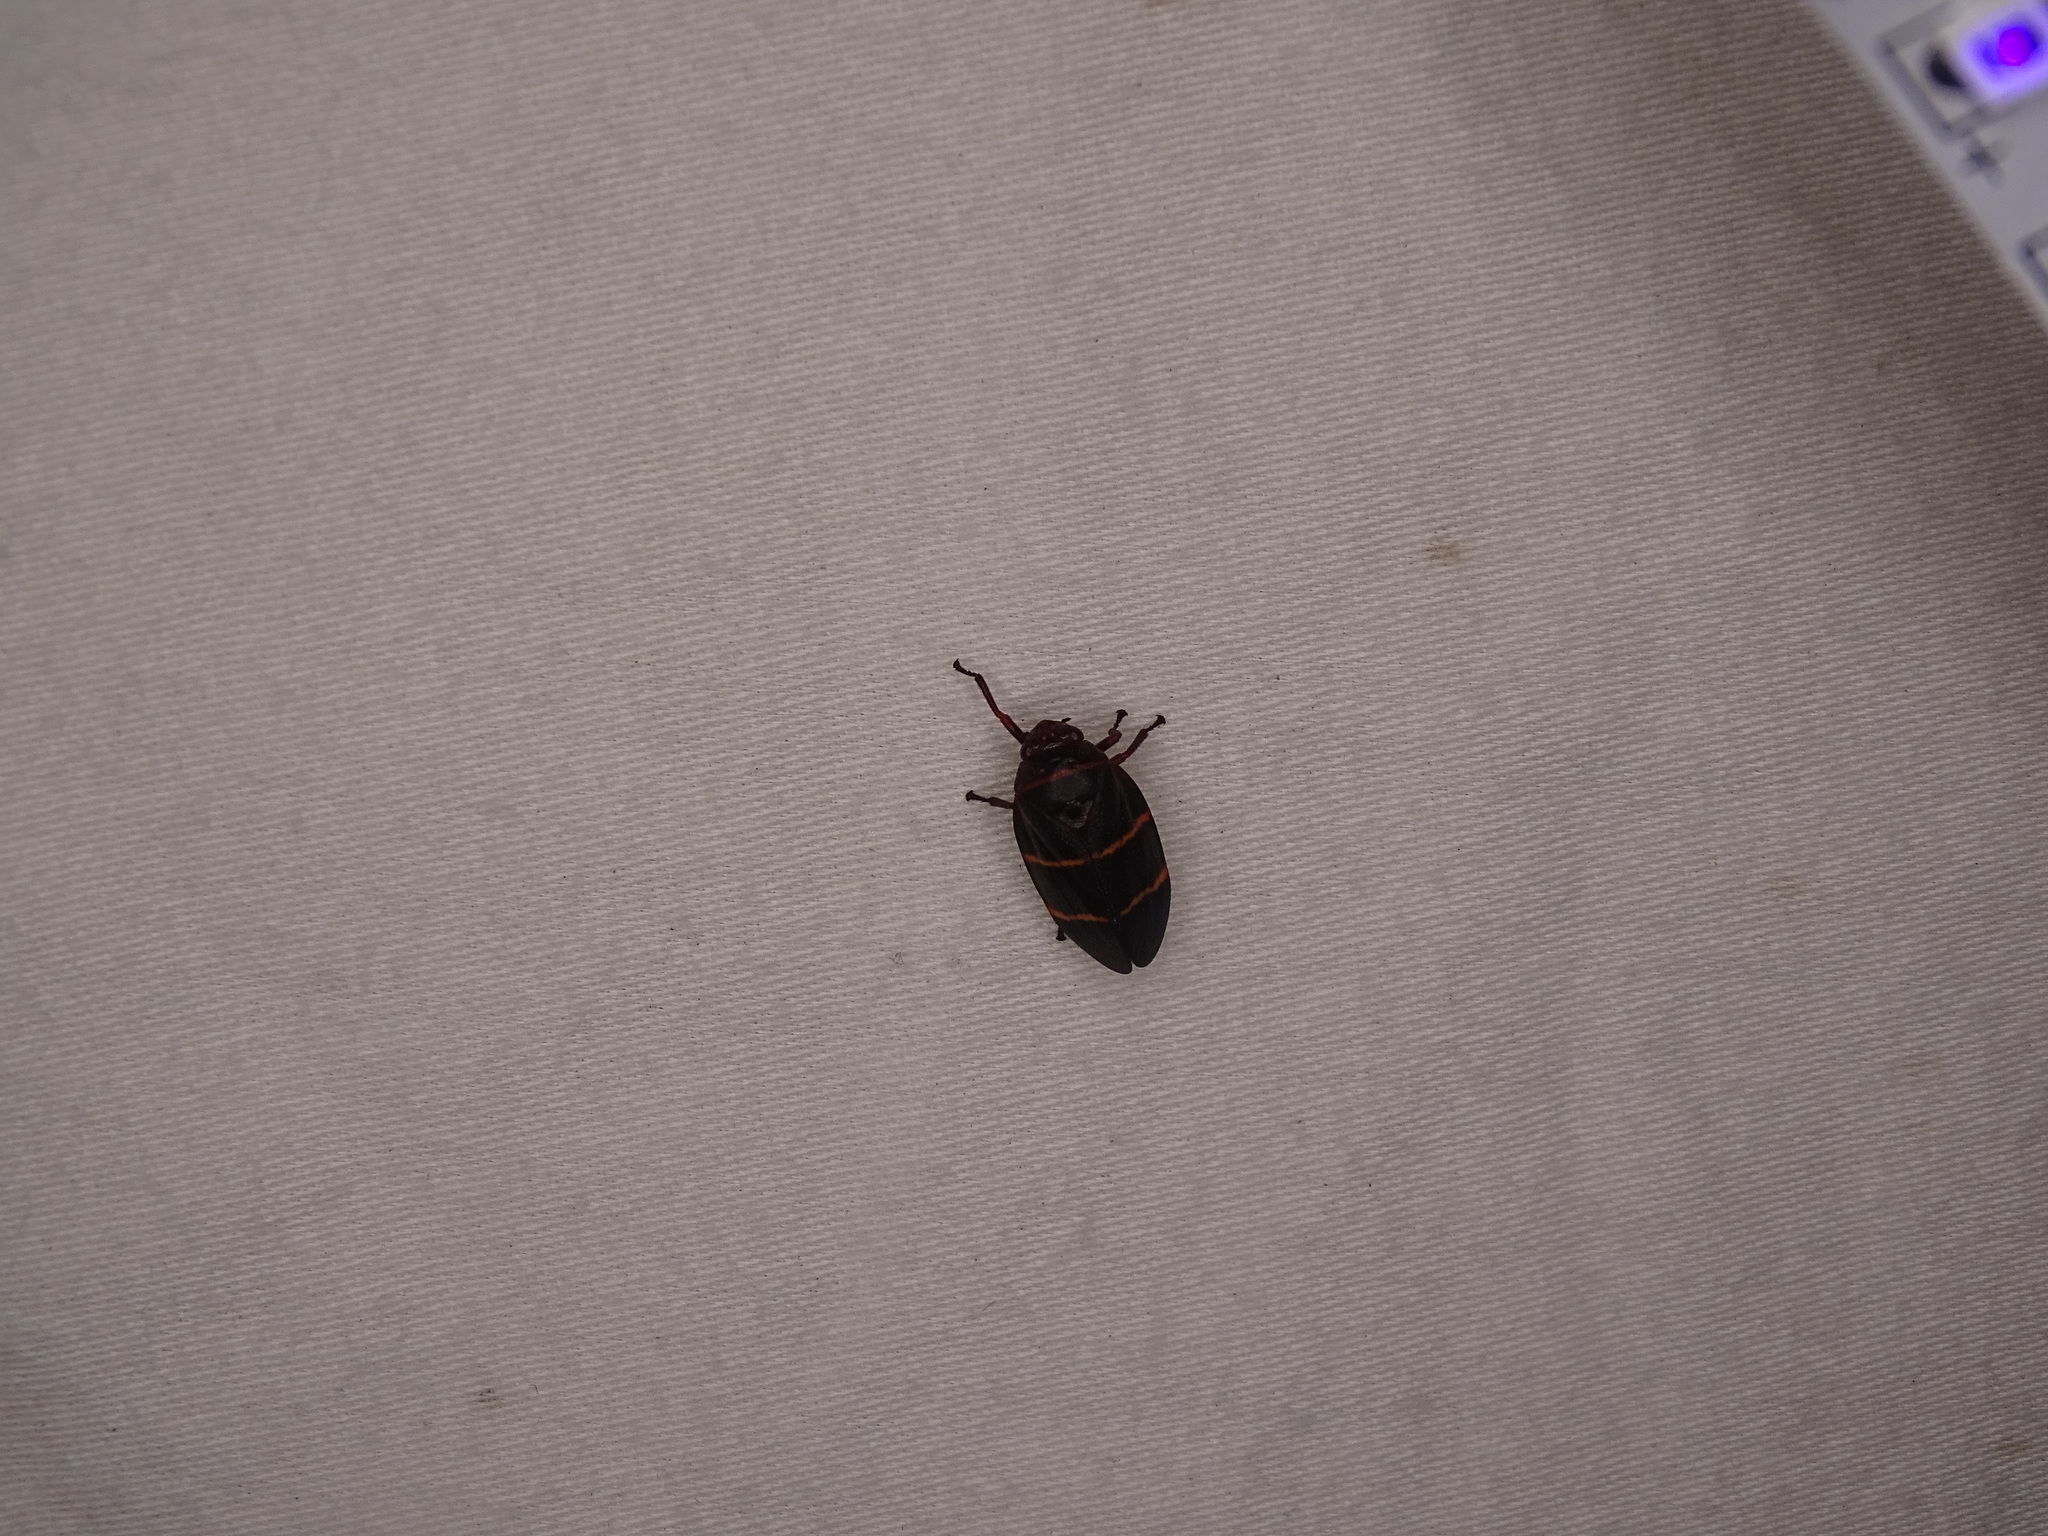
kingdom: Animalia
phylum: Arthropoda
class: Insecta
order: Hemiptera
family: Cercopidae
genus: Prosapia
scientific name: Prosapia bicincta
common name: Twolined spittlebug
